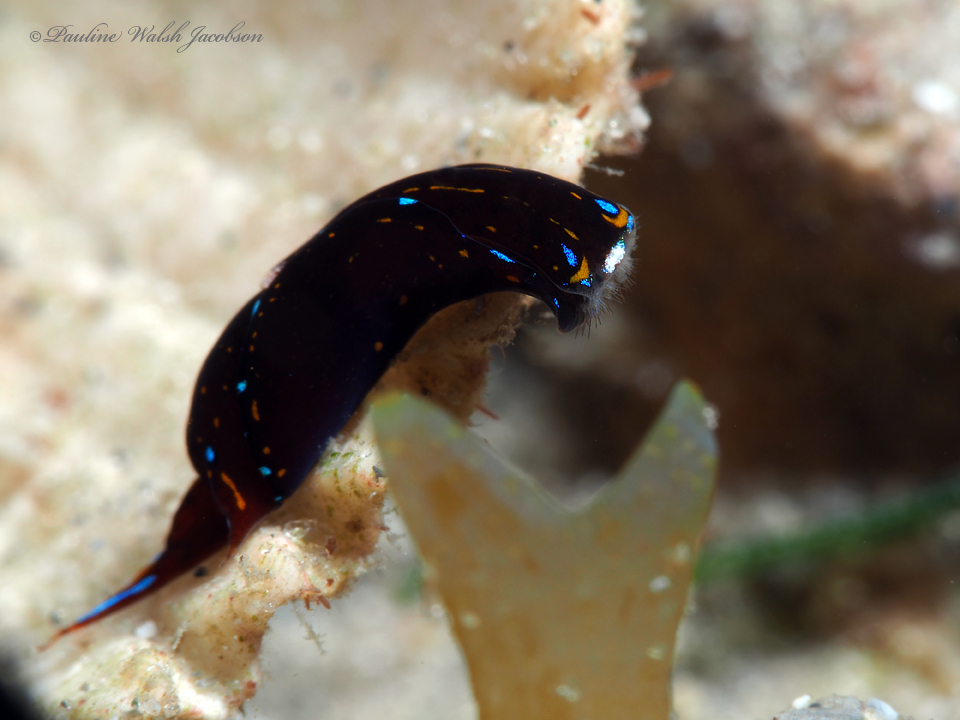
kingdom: Animalia
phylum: Mollusca
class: Gastropoda
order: Cephalaspidea
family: Aglajidae
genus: Chelidonura
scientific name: Chelidonura cubana
